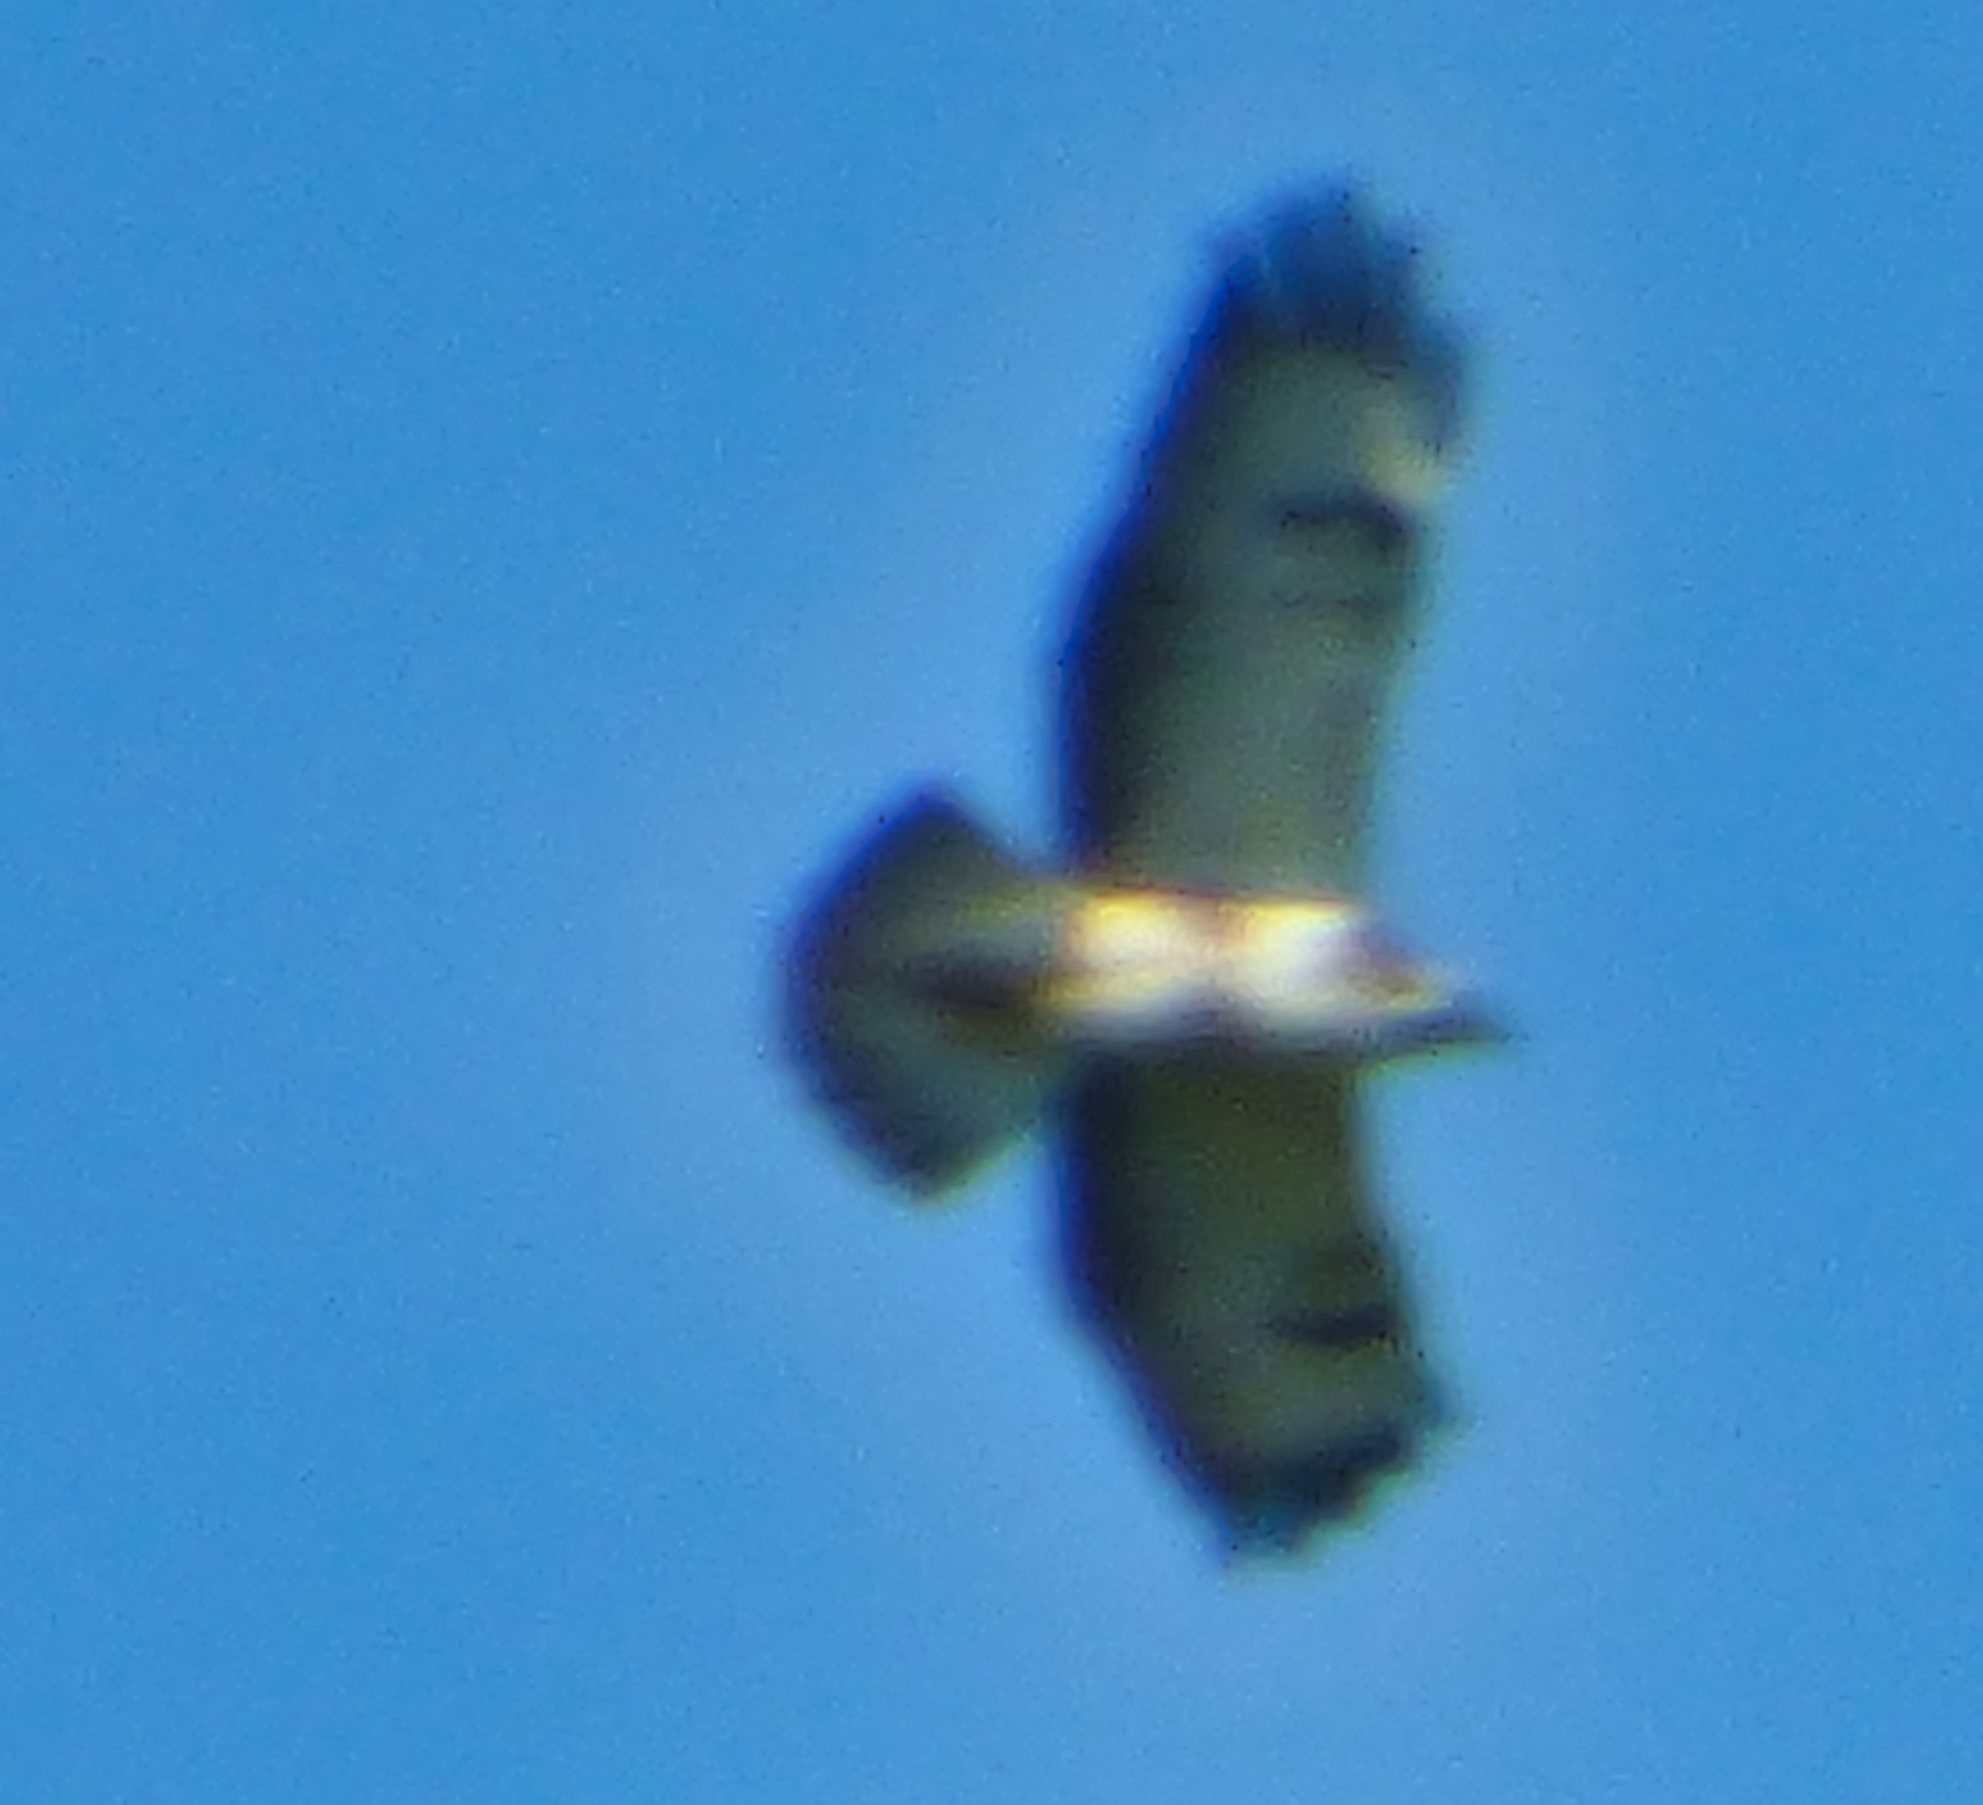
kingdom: Animalia
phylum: Chordata
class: Aves
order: Accipitriformes
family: Accipitridae
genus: Buteo
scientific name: Buteo buteo
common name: Common buzzard
